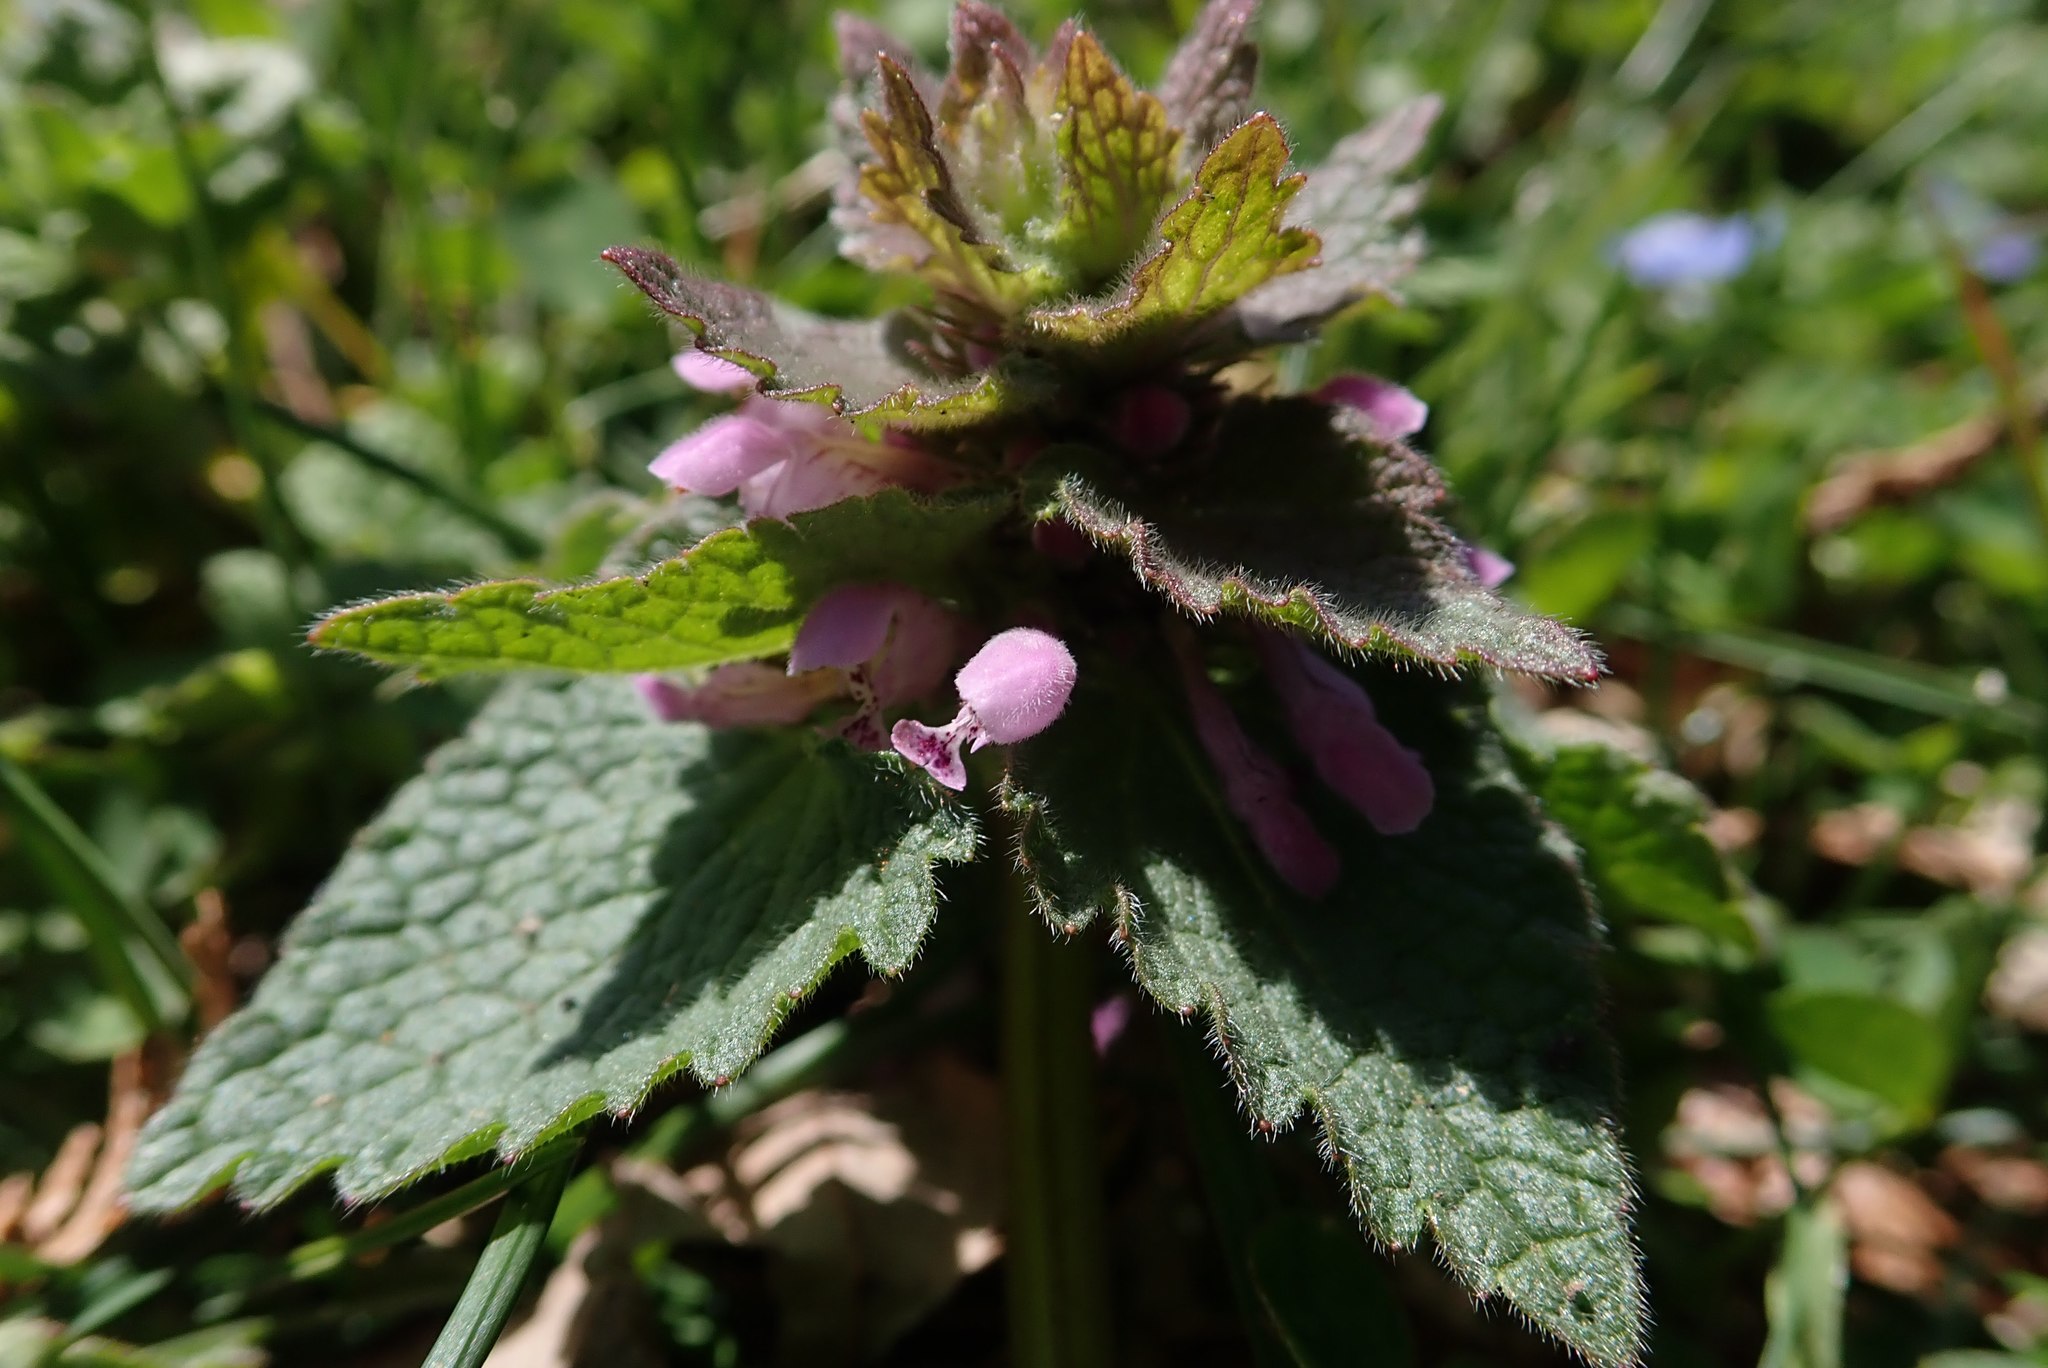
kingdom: Plantae
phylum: Tracheophyta
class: Magnoliopsida
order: Lamiales
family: Lamiaceae
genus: Lamium
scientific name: Lamium purpureum
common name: Red dead-nettle
